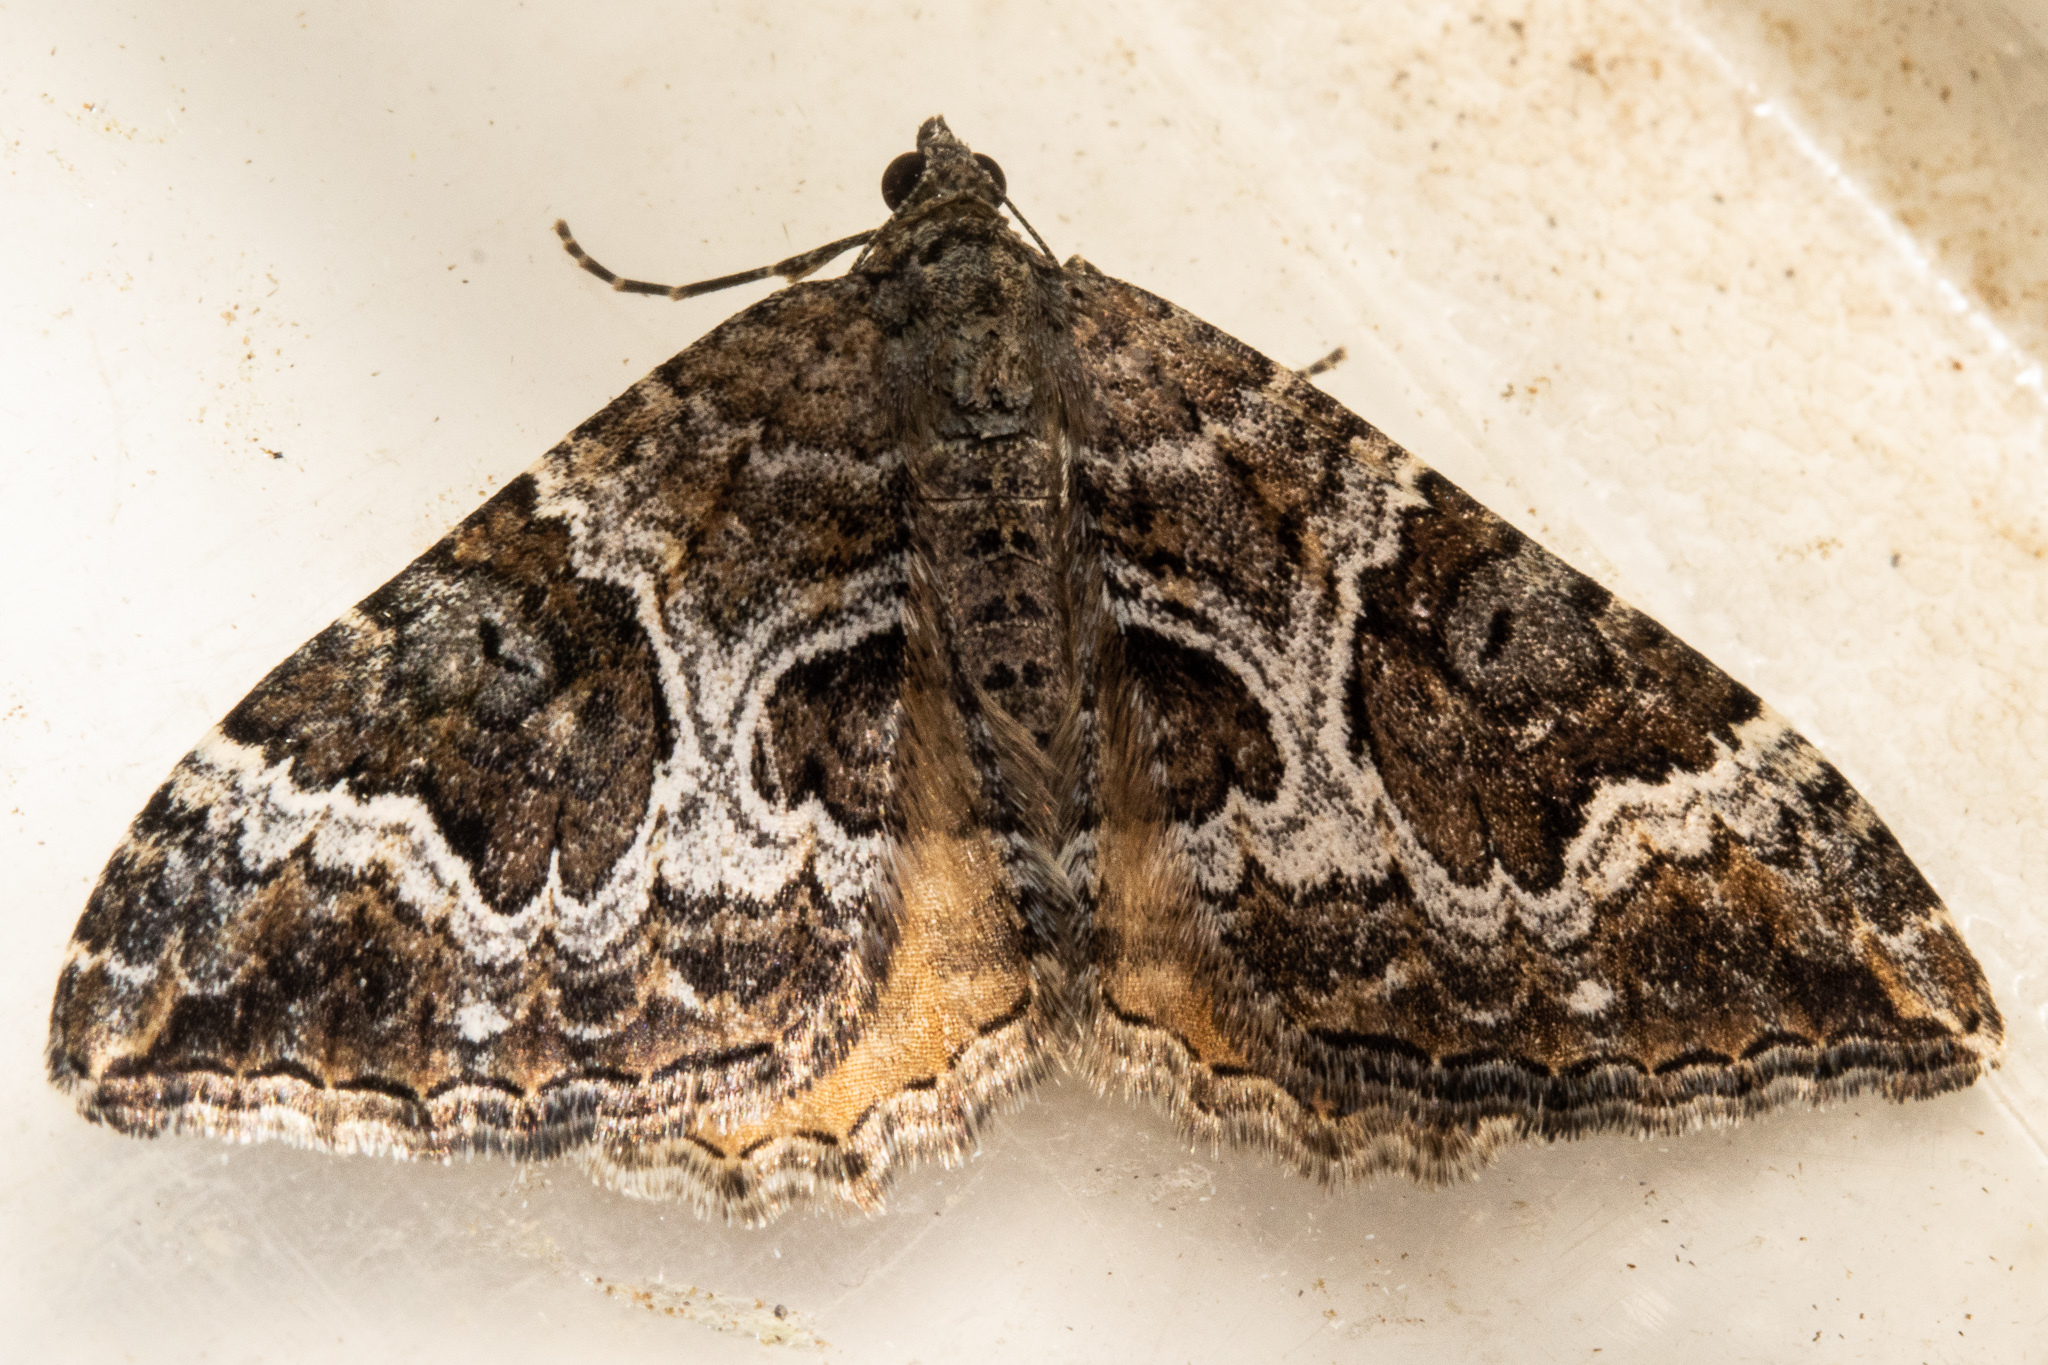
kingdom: Animalia
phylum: Arthropoda
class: Insecta
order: Lepidoptera
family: Geometridae
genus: Hydriomena
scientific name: Hydriomena deltoidata
